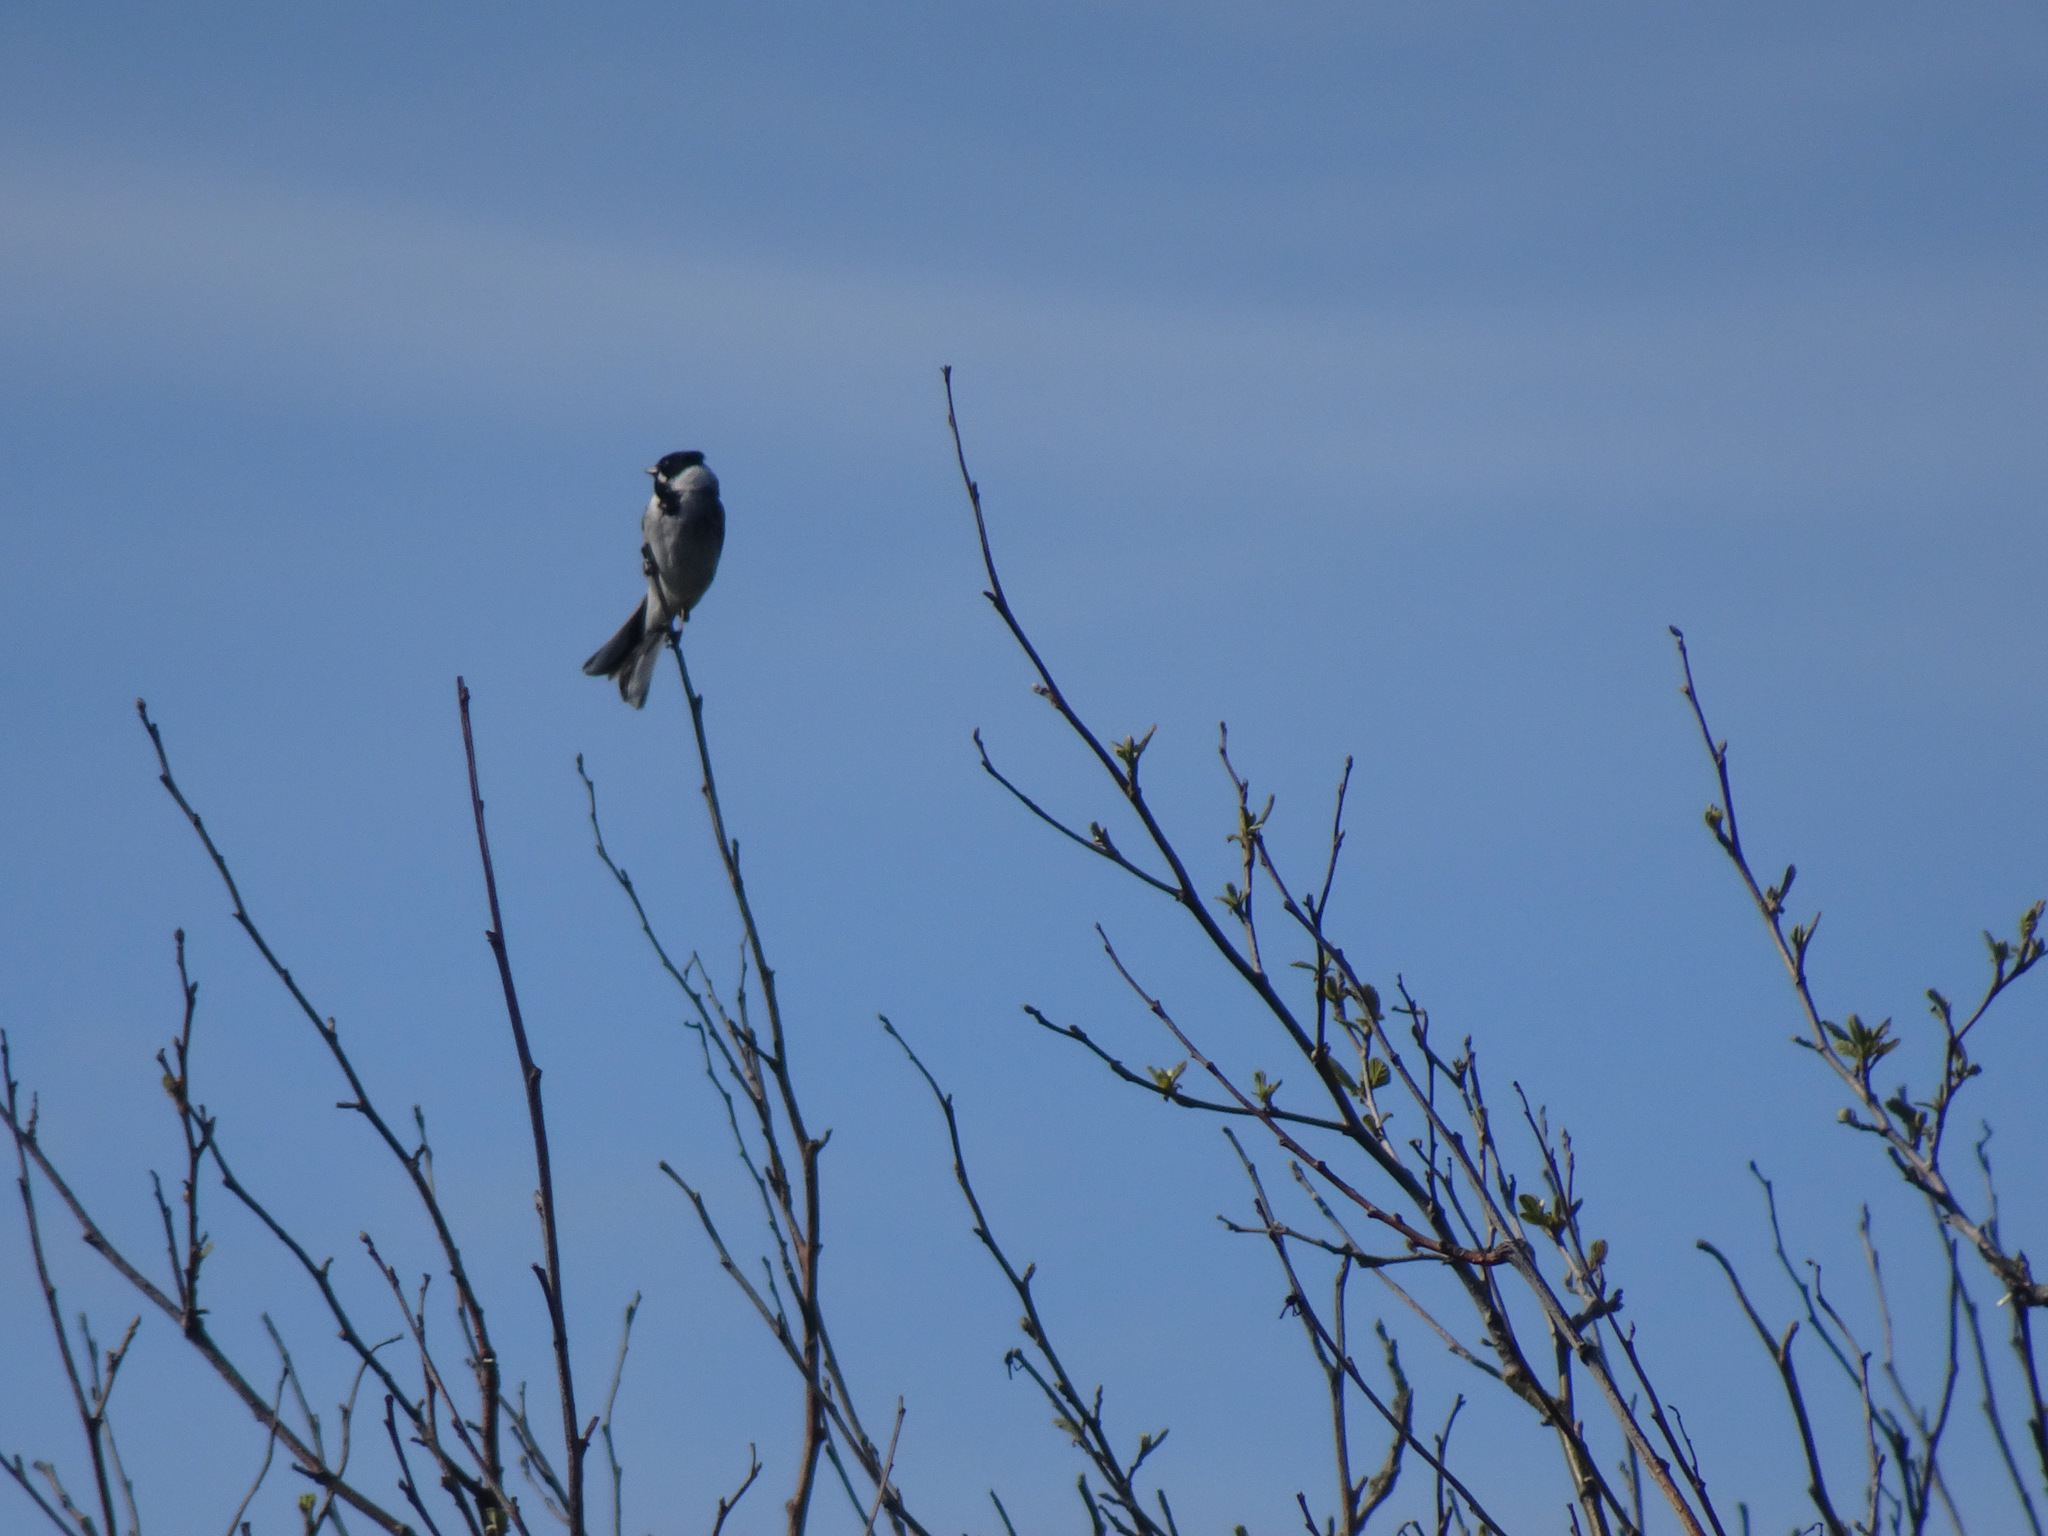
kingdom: Animalia
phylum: Chordata
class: Aves
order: Passeriformes
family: Emberizidae
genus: Emberiza
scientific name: Emberiza schoeniclus
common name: Reed bunting
